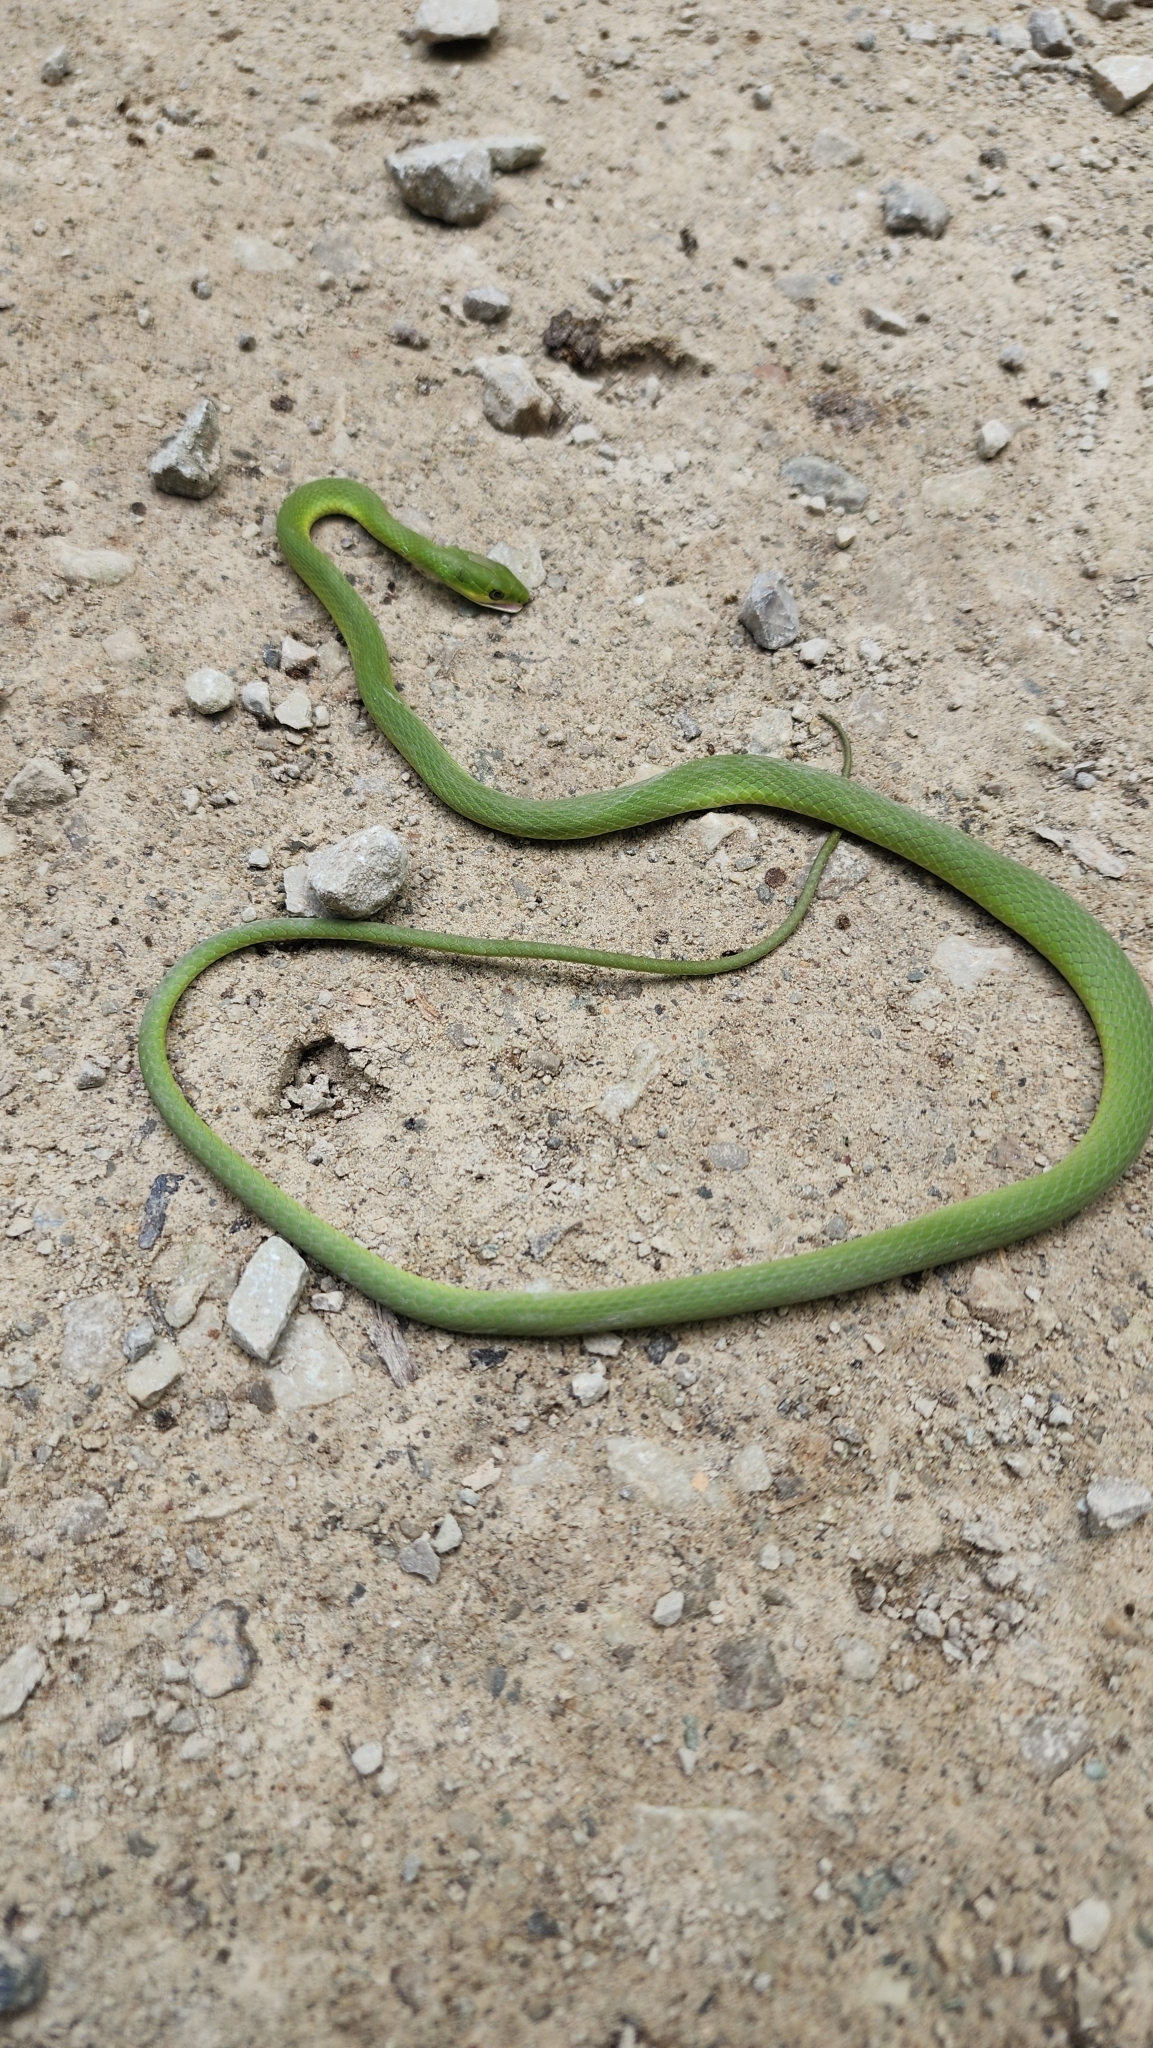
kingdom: Animalia
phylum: Chordata
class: Squamata
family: Colubridae
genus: Opheodrys
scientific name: Opheodrys aestivus
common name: Rough greensnake
